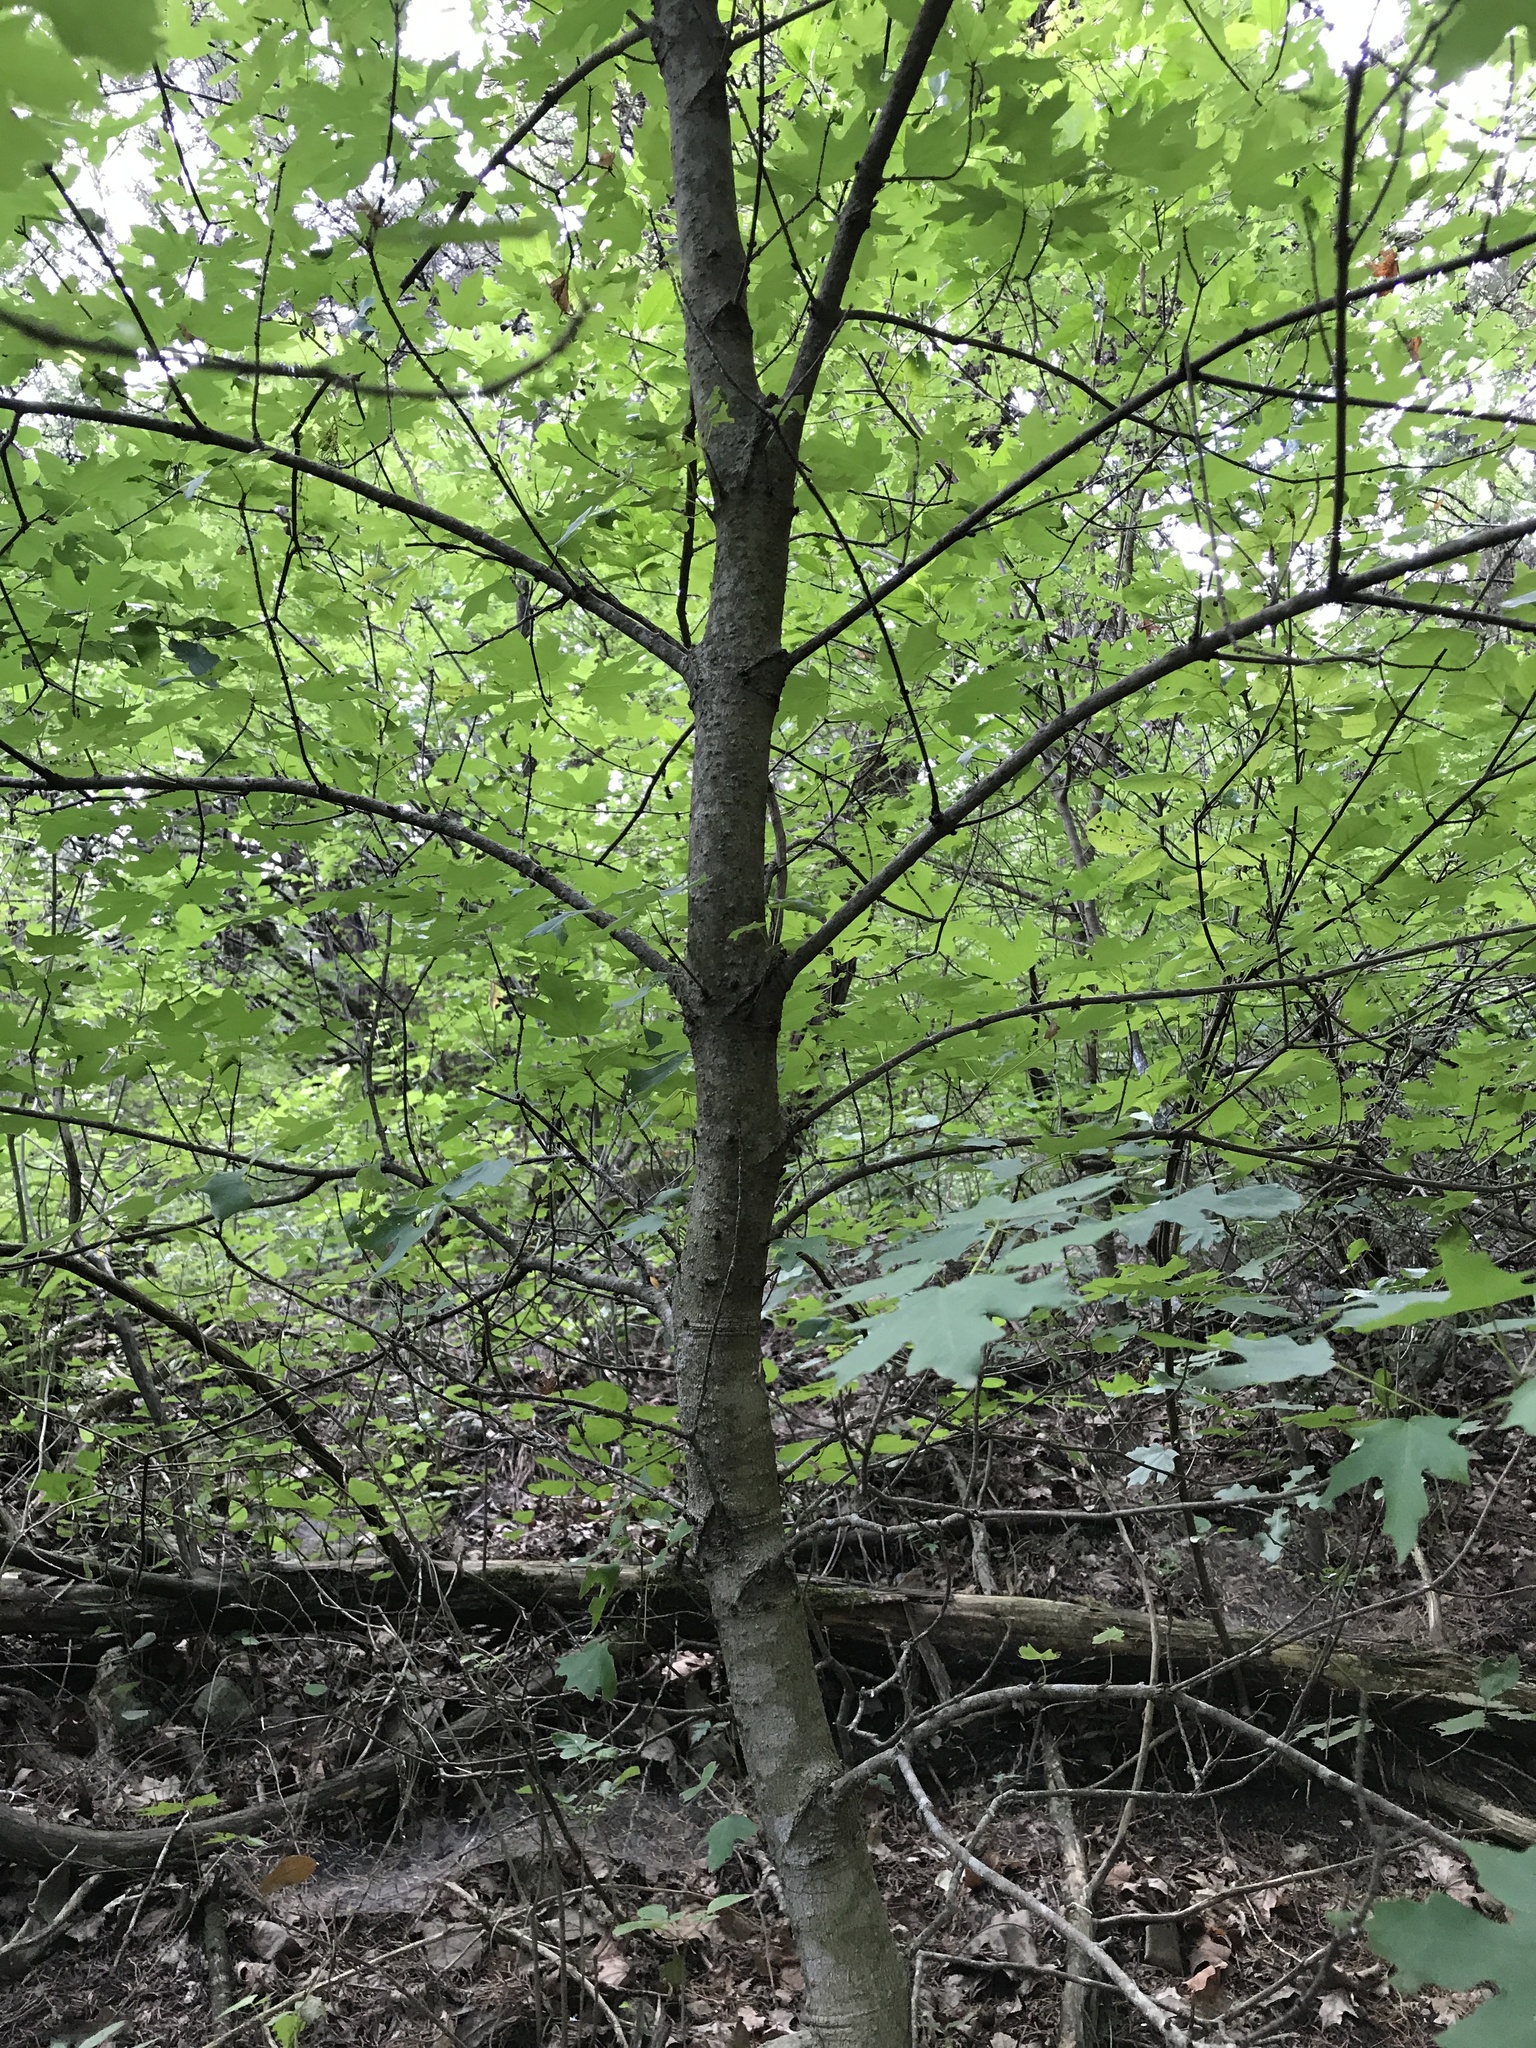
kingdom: Plantae
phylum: Tracheophyta
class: Magnoliopsida
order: Sapindales
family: Sapindaceae
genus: Acer
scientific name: Acer grandidentatum
